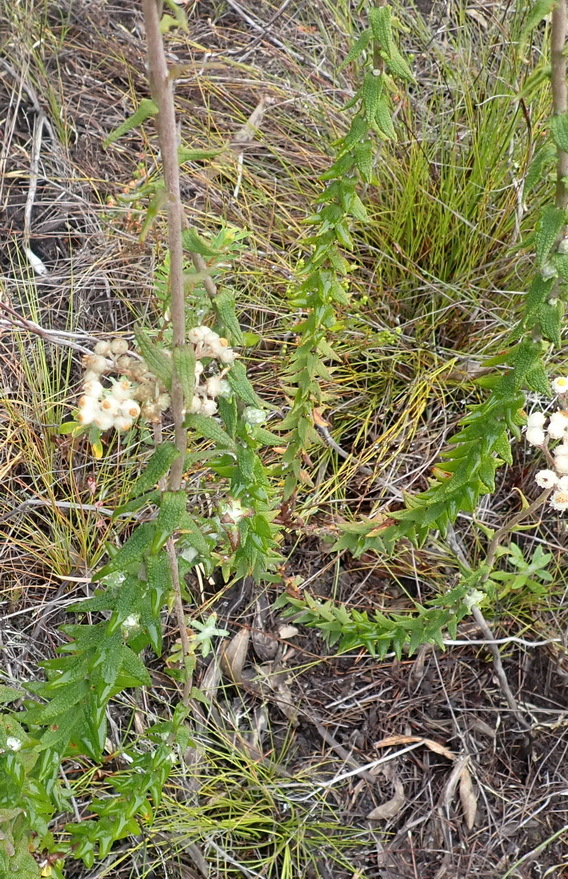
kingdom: Plantae
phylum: Tracheophyta
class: Magnoliopsida
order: Asterales
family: Asteraceae
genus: Helichrysum
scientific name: Helichrysum felinum
